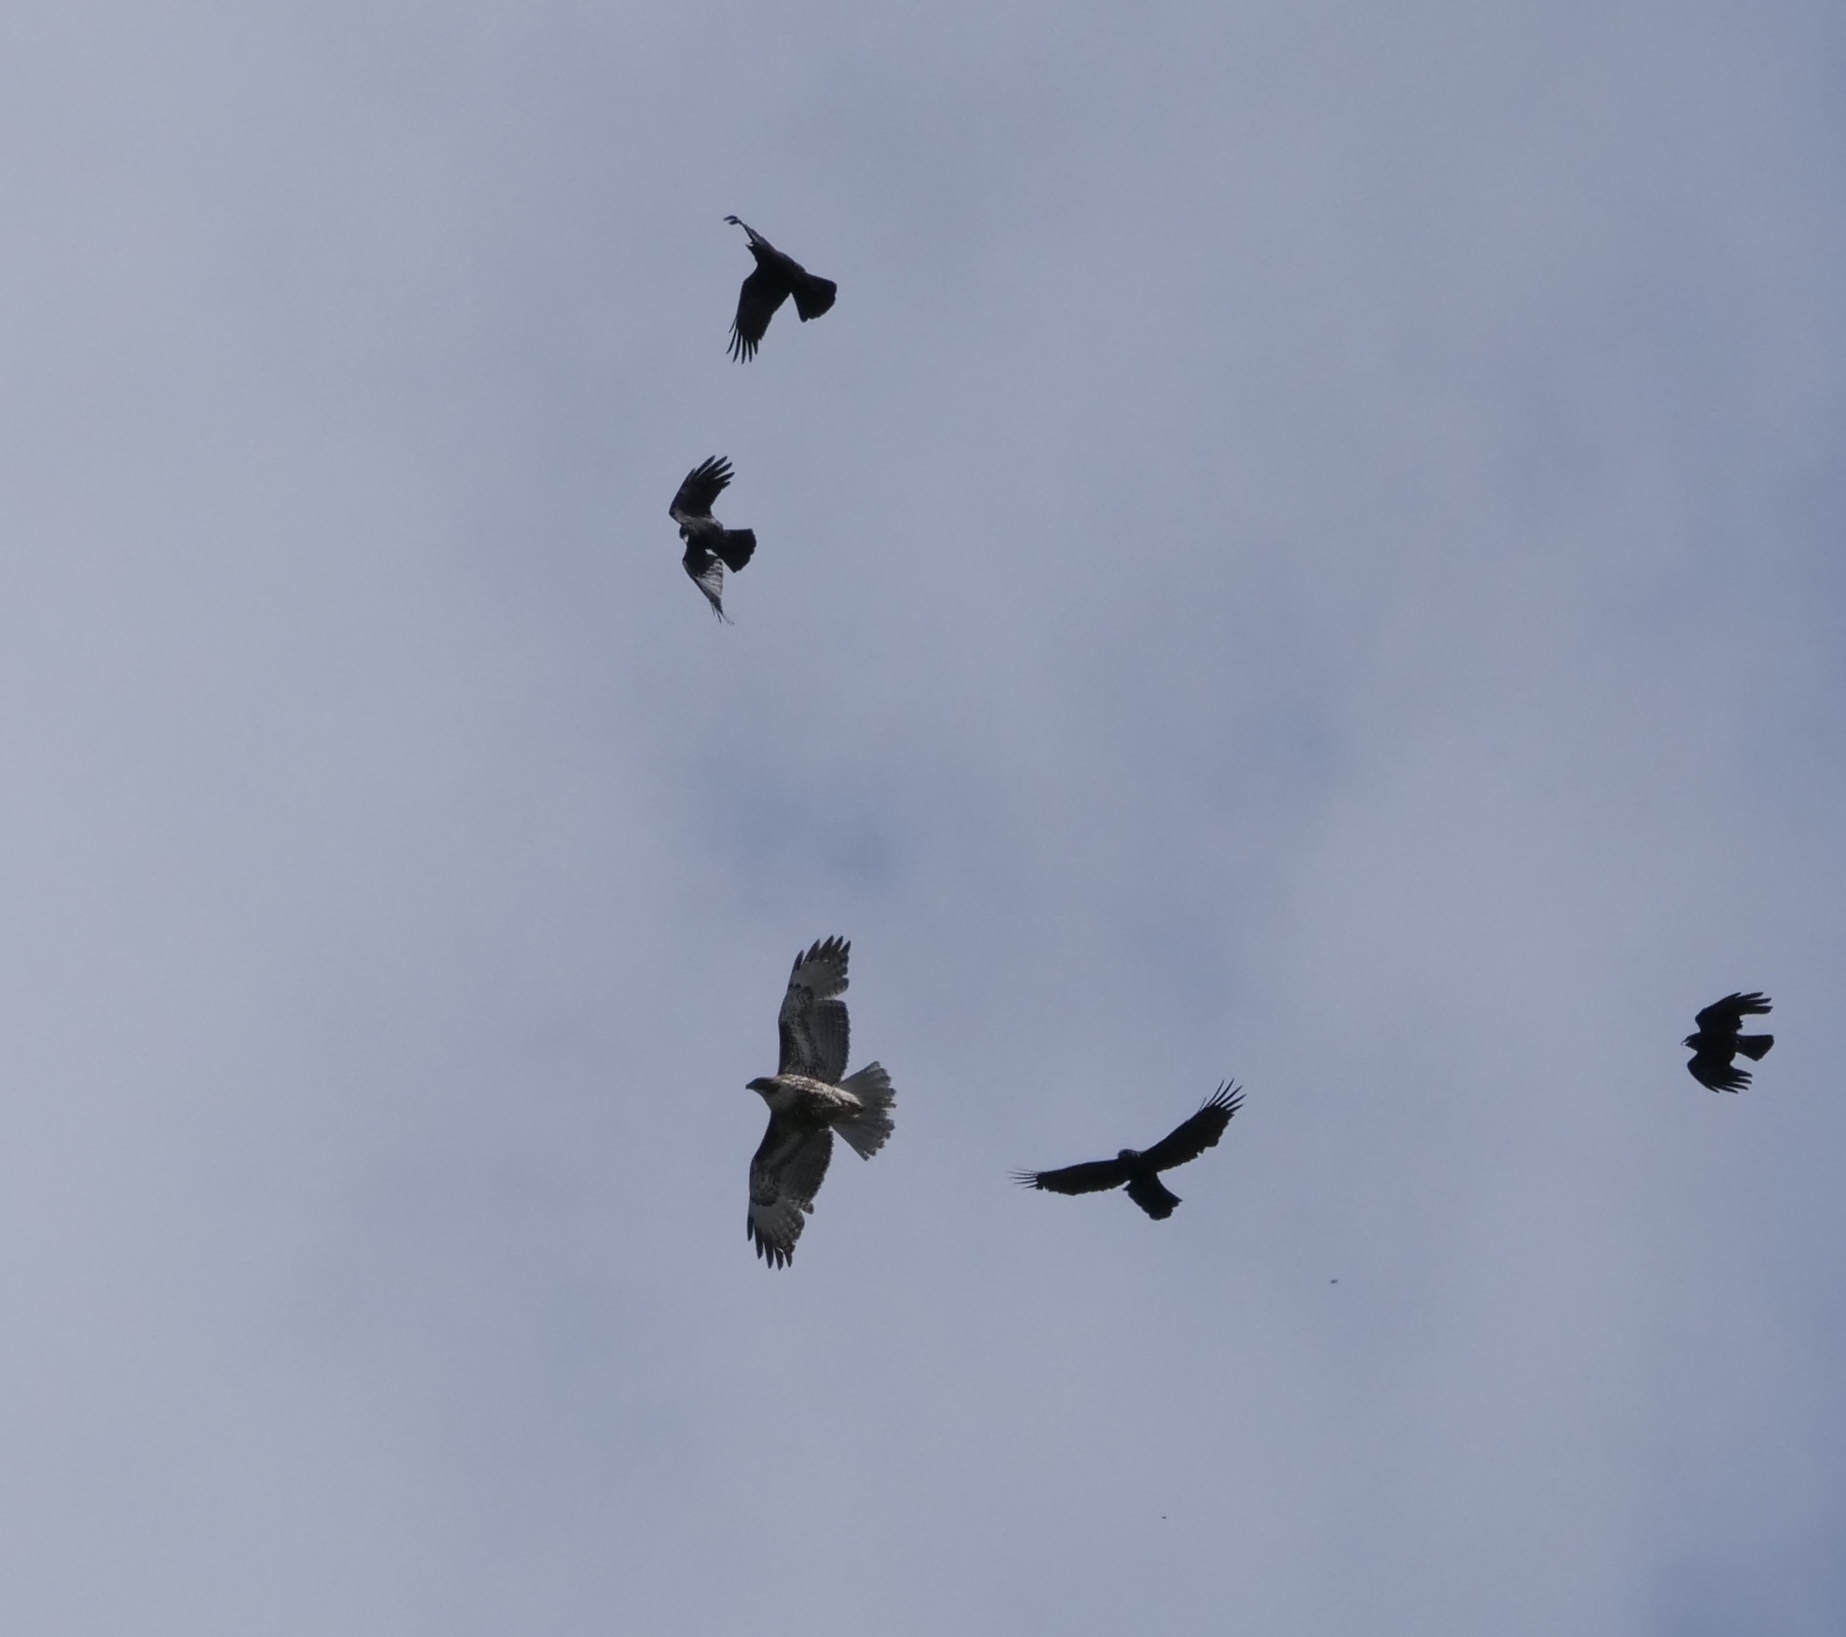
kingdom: Animalia
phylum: Chordata
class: Aves
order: Accipitriformes
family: Accipitridae
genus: Buteo
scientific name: Buteo jamaicensis
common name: Red-tailed hawk
